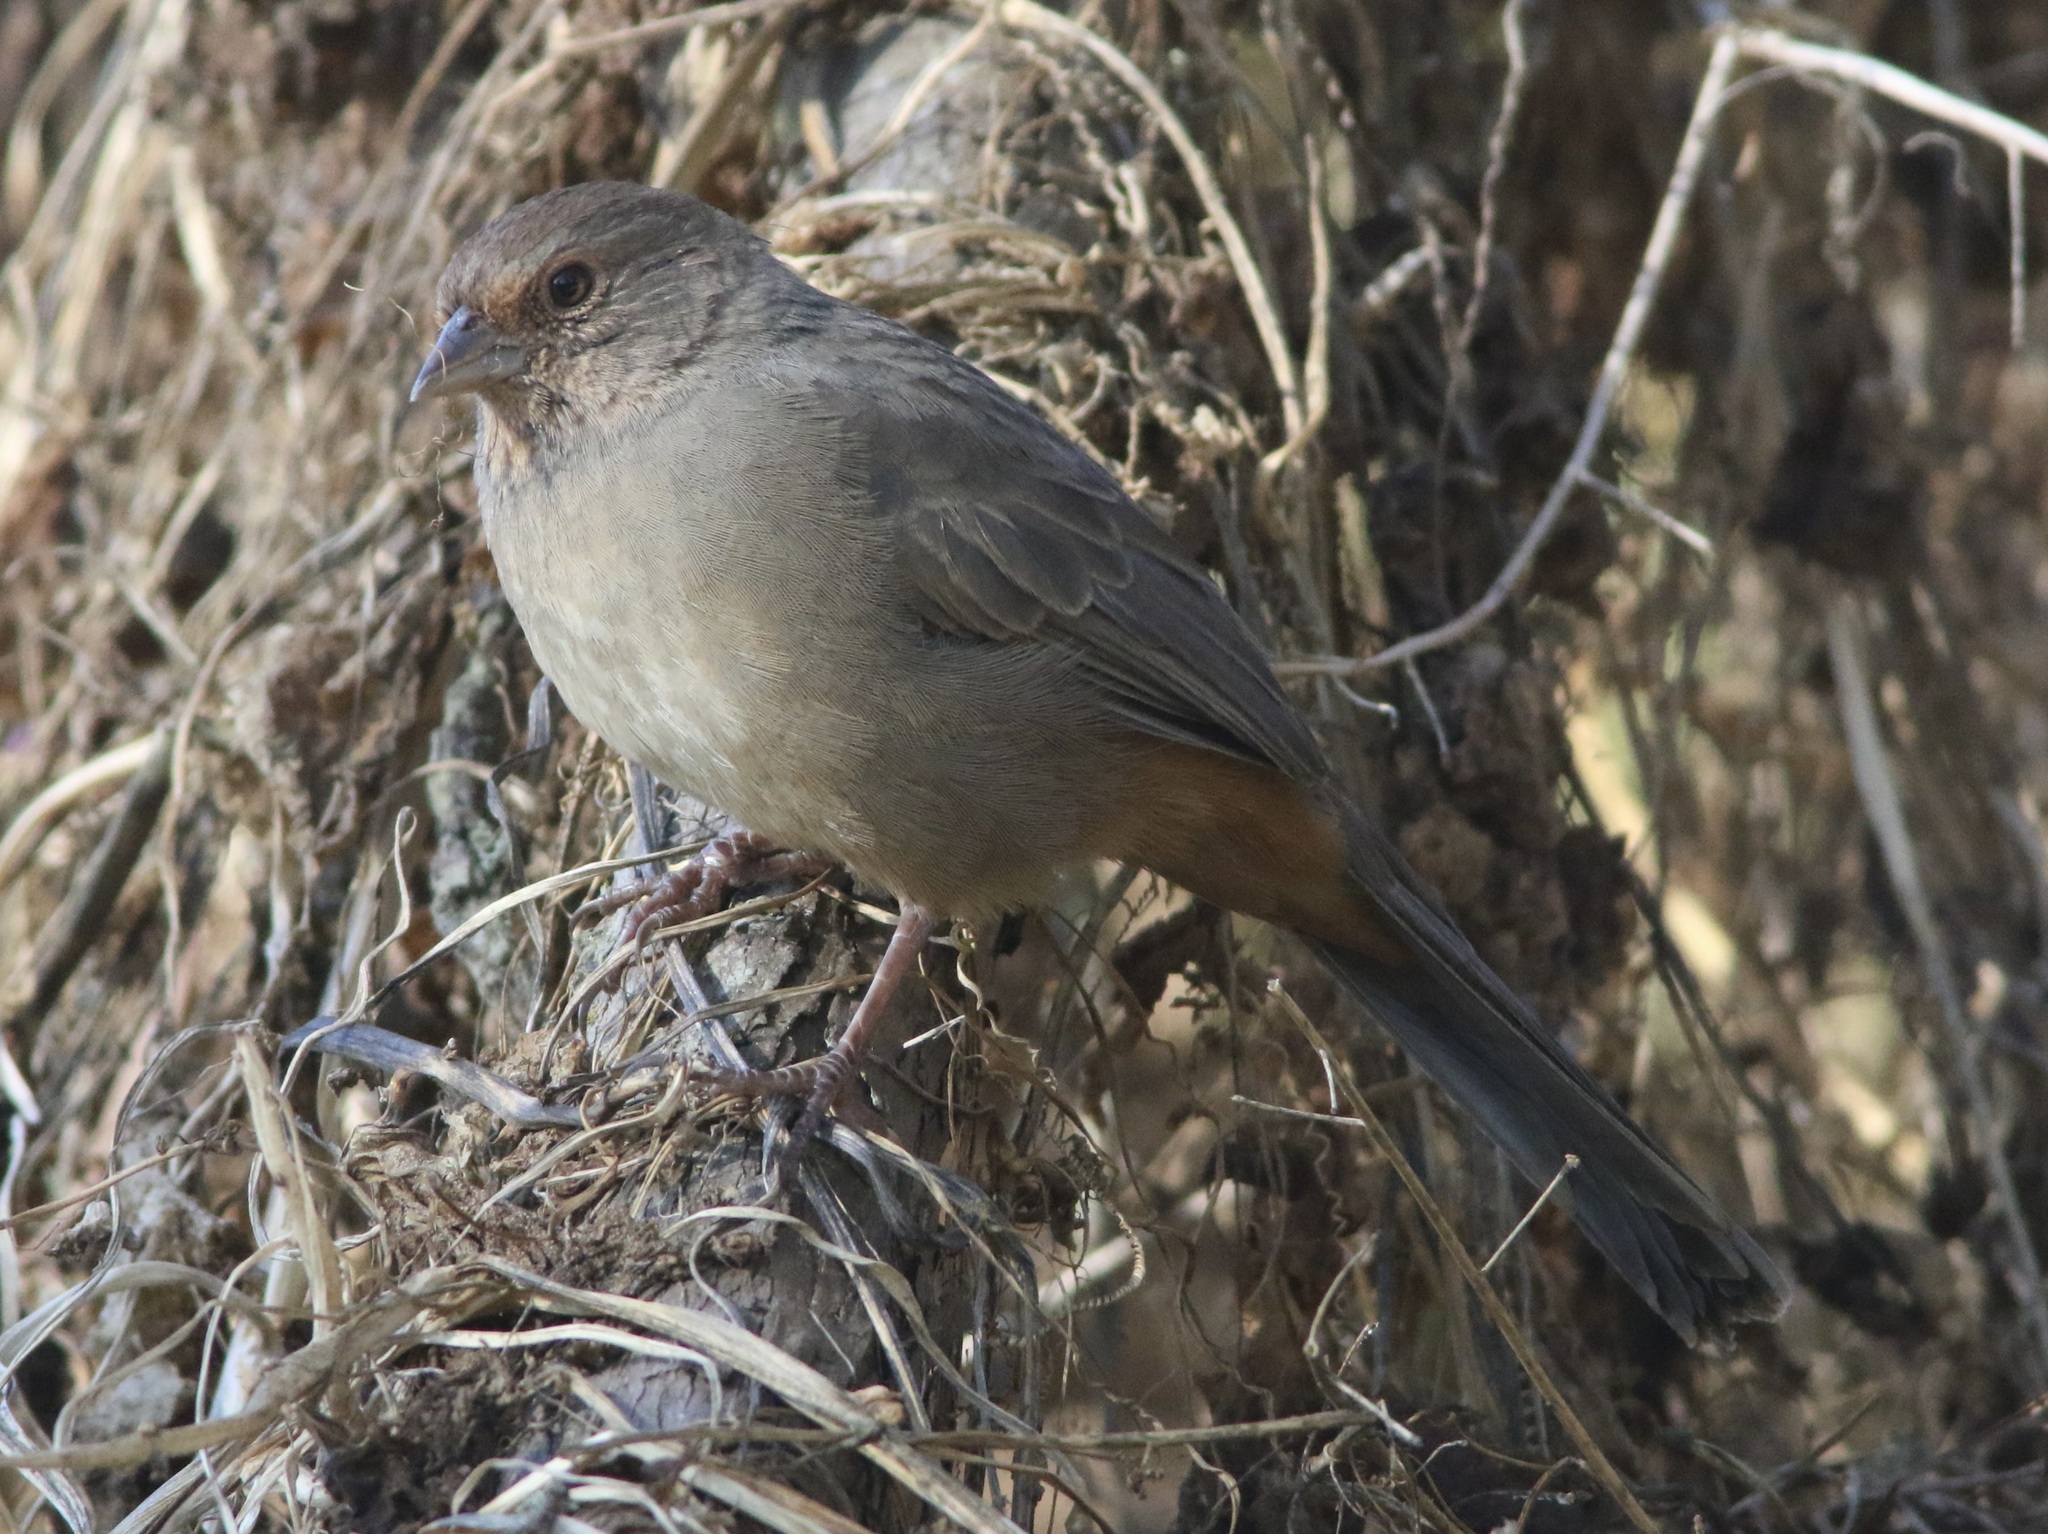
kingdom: Animalia
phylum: Chordata
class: Aves
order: Passeriformes
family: Passerellidae
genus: Melozone
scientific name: Melozone crissalis
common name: California towhee
